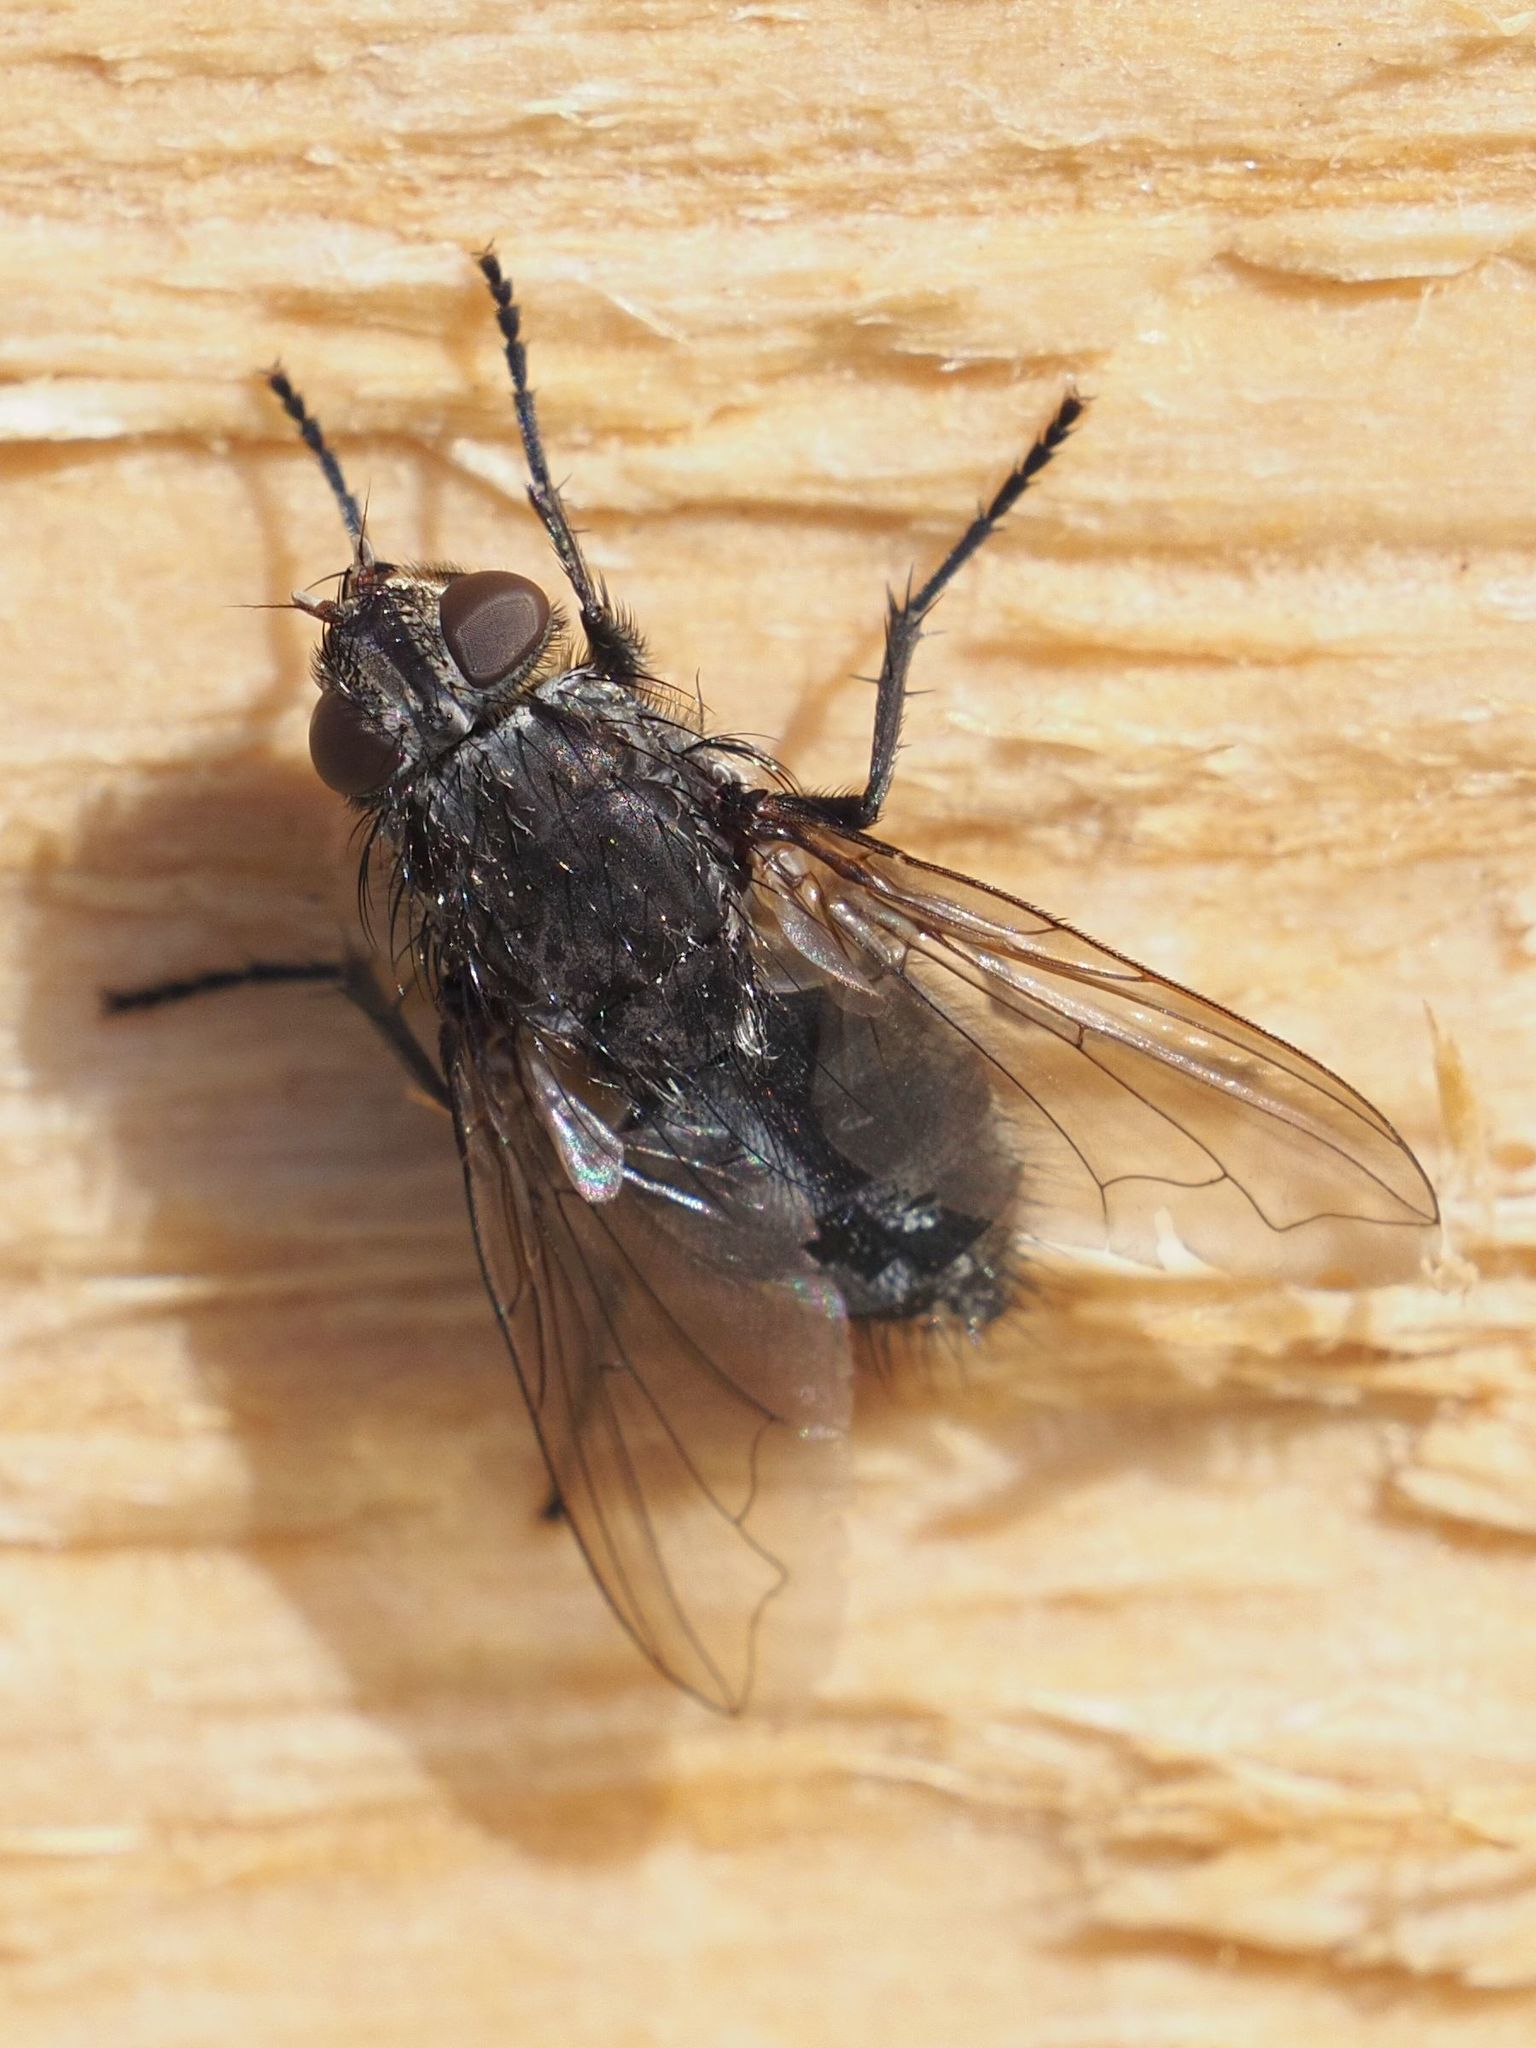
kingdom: Animalia
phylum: Arthropoda
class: Insecta
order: Diptera
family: Polleniidae
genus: Pollenia
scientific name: Pollenia vagabunda
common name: Vagabund cluster fly
